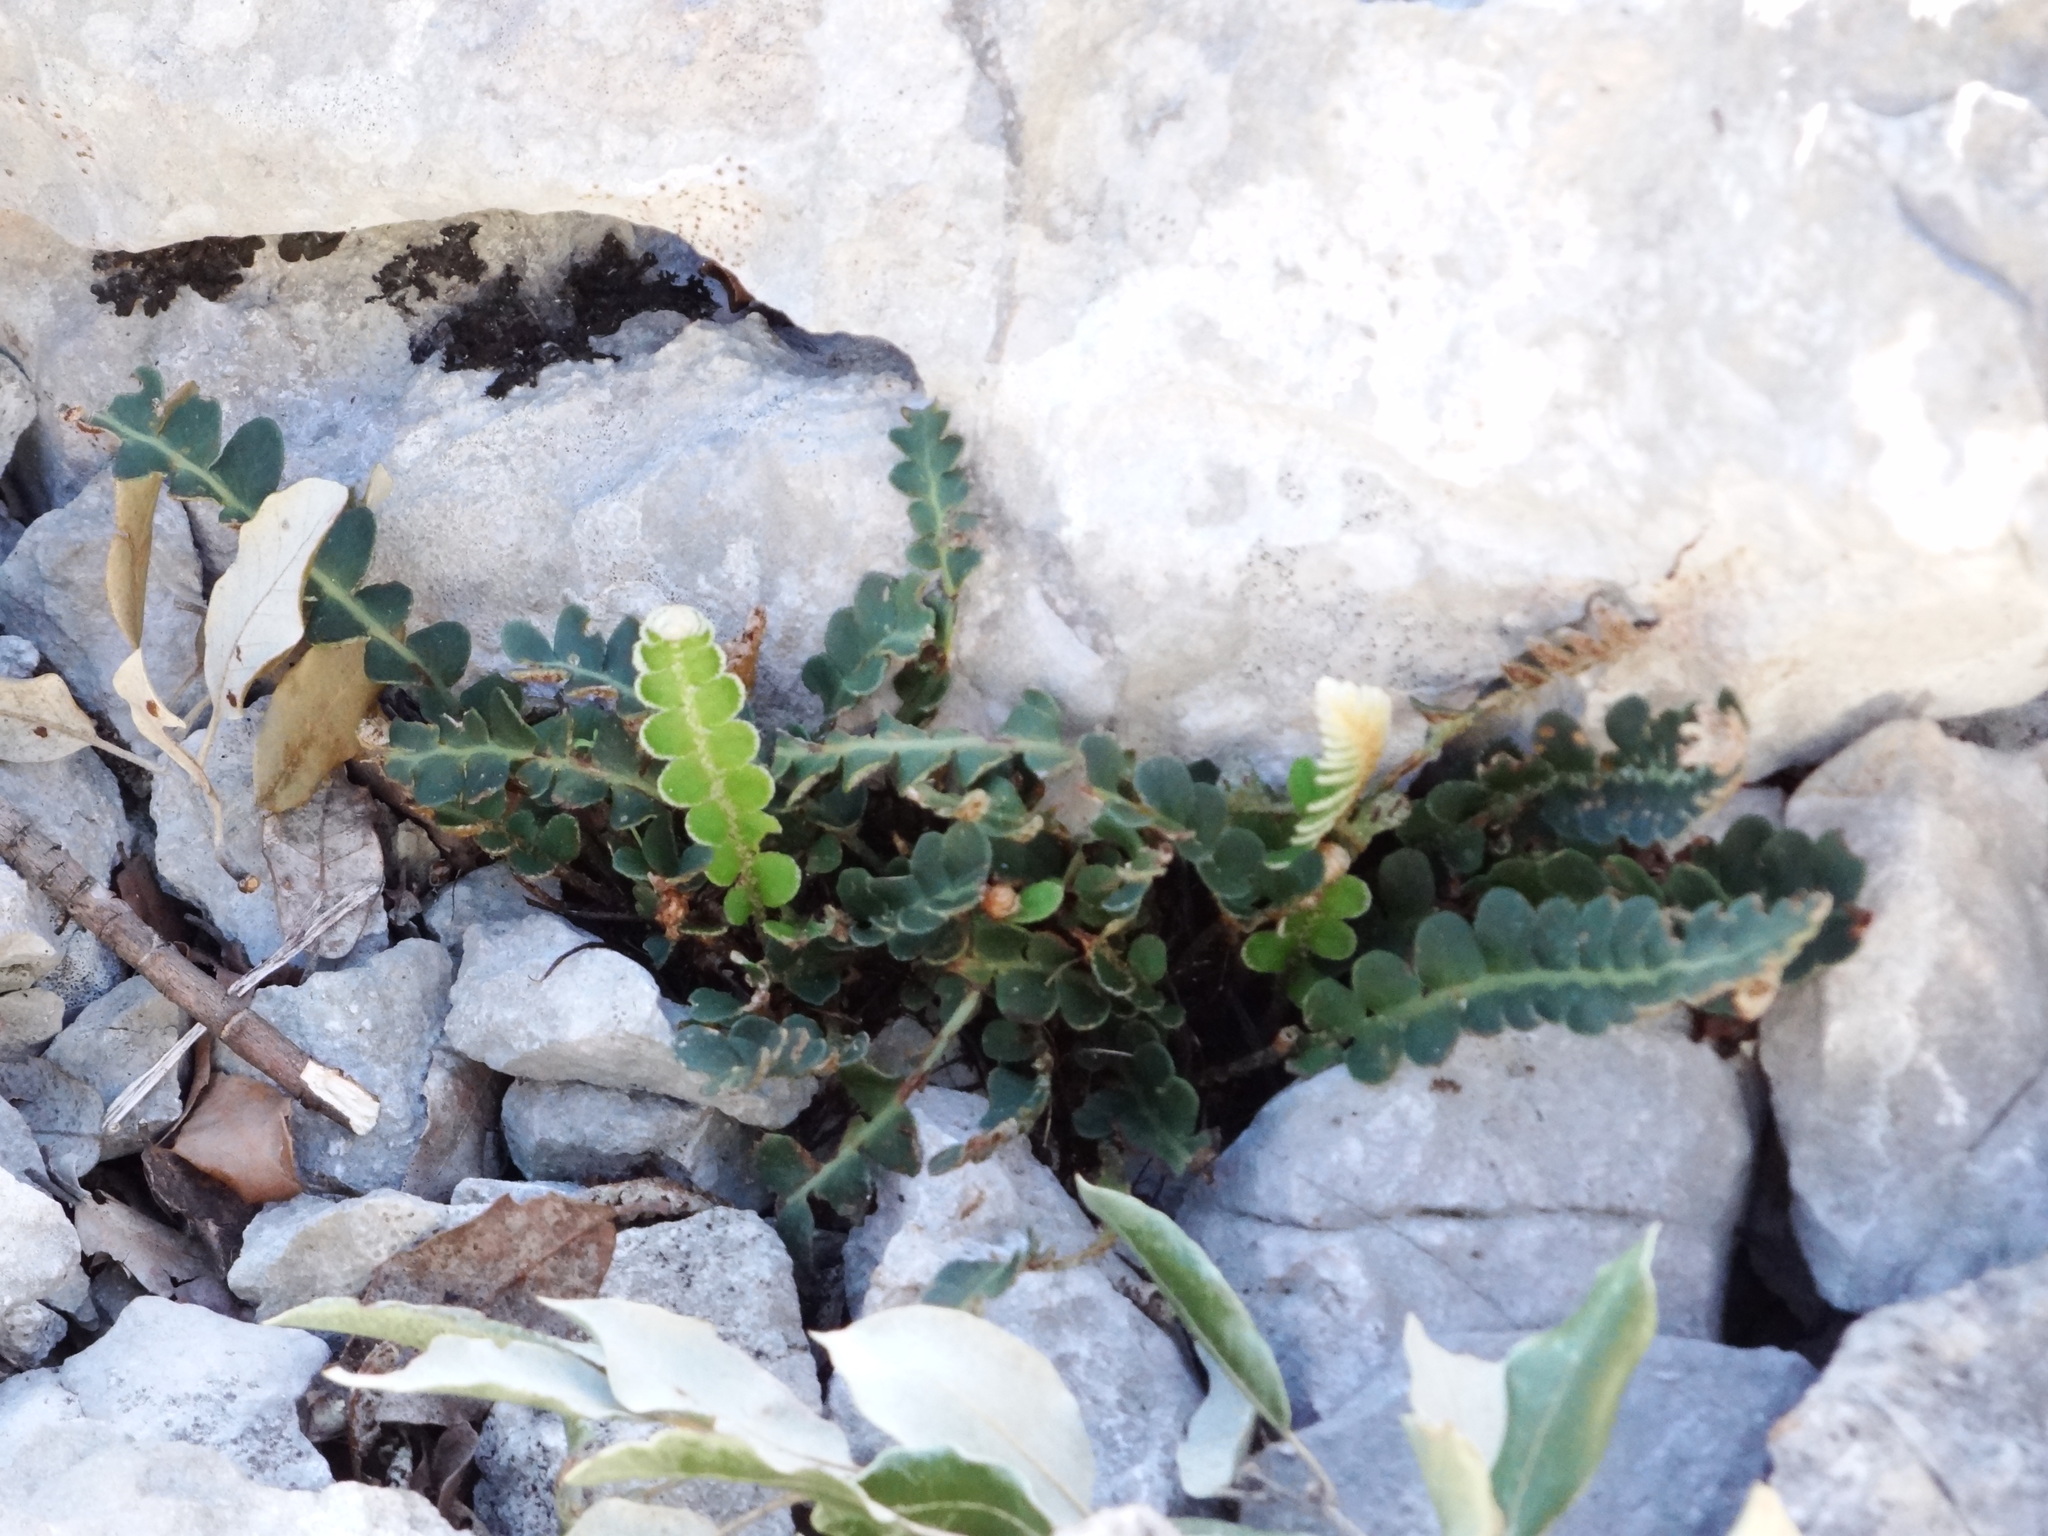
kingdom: Plantae
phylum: Tracheophyta
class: Polypodiopsida
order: Polypodiales
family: Aspleniaceae
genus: Asplenium
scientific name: Asplenium ceterach
